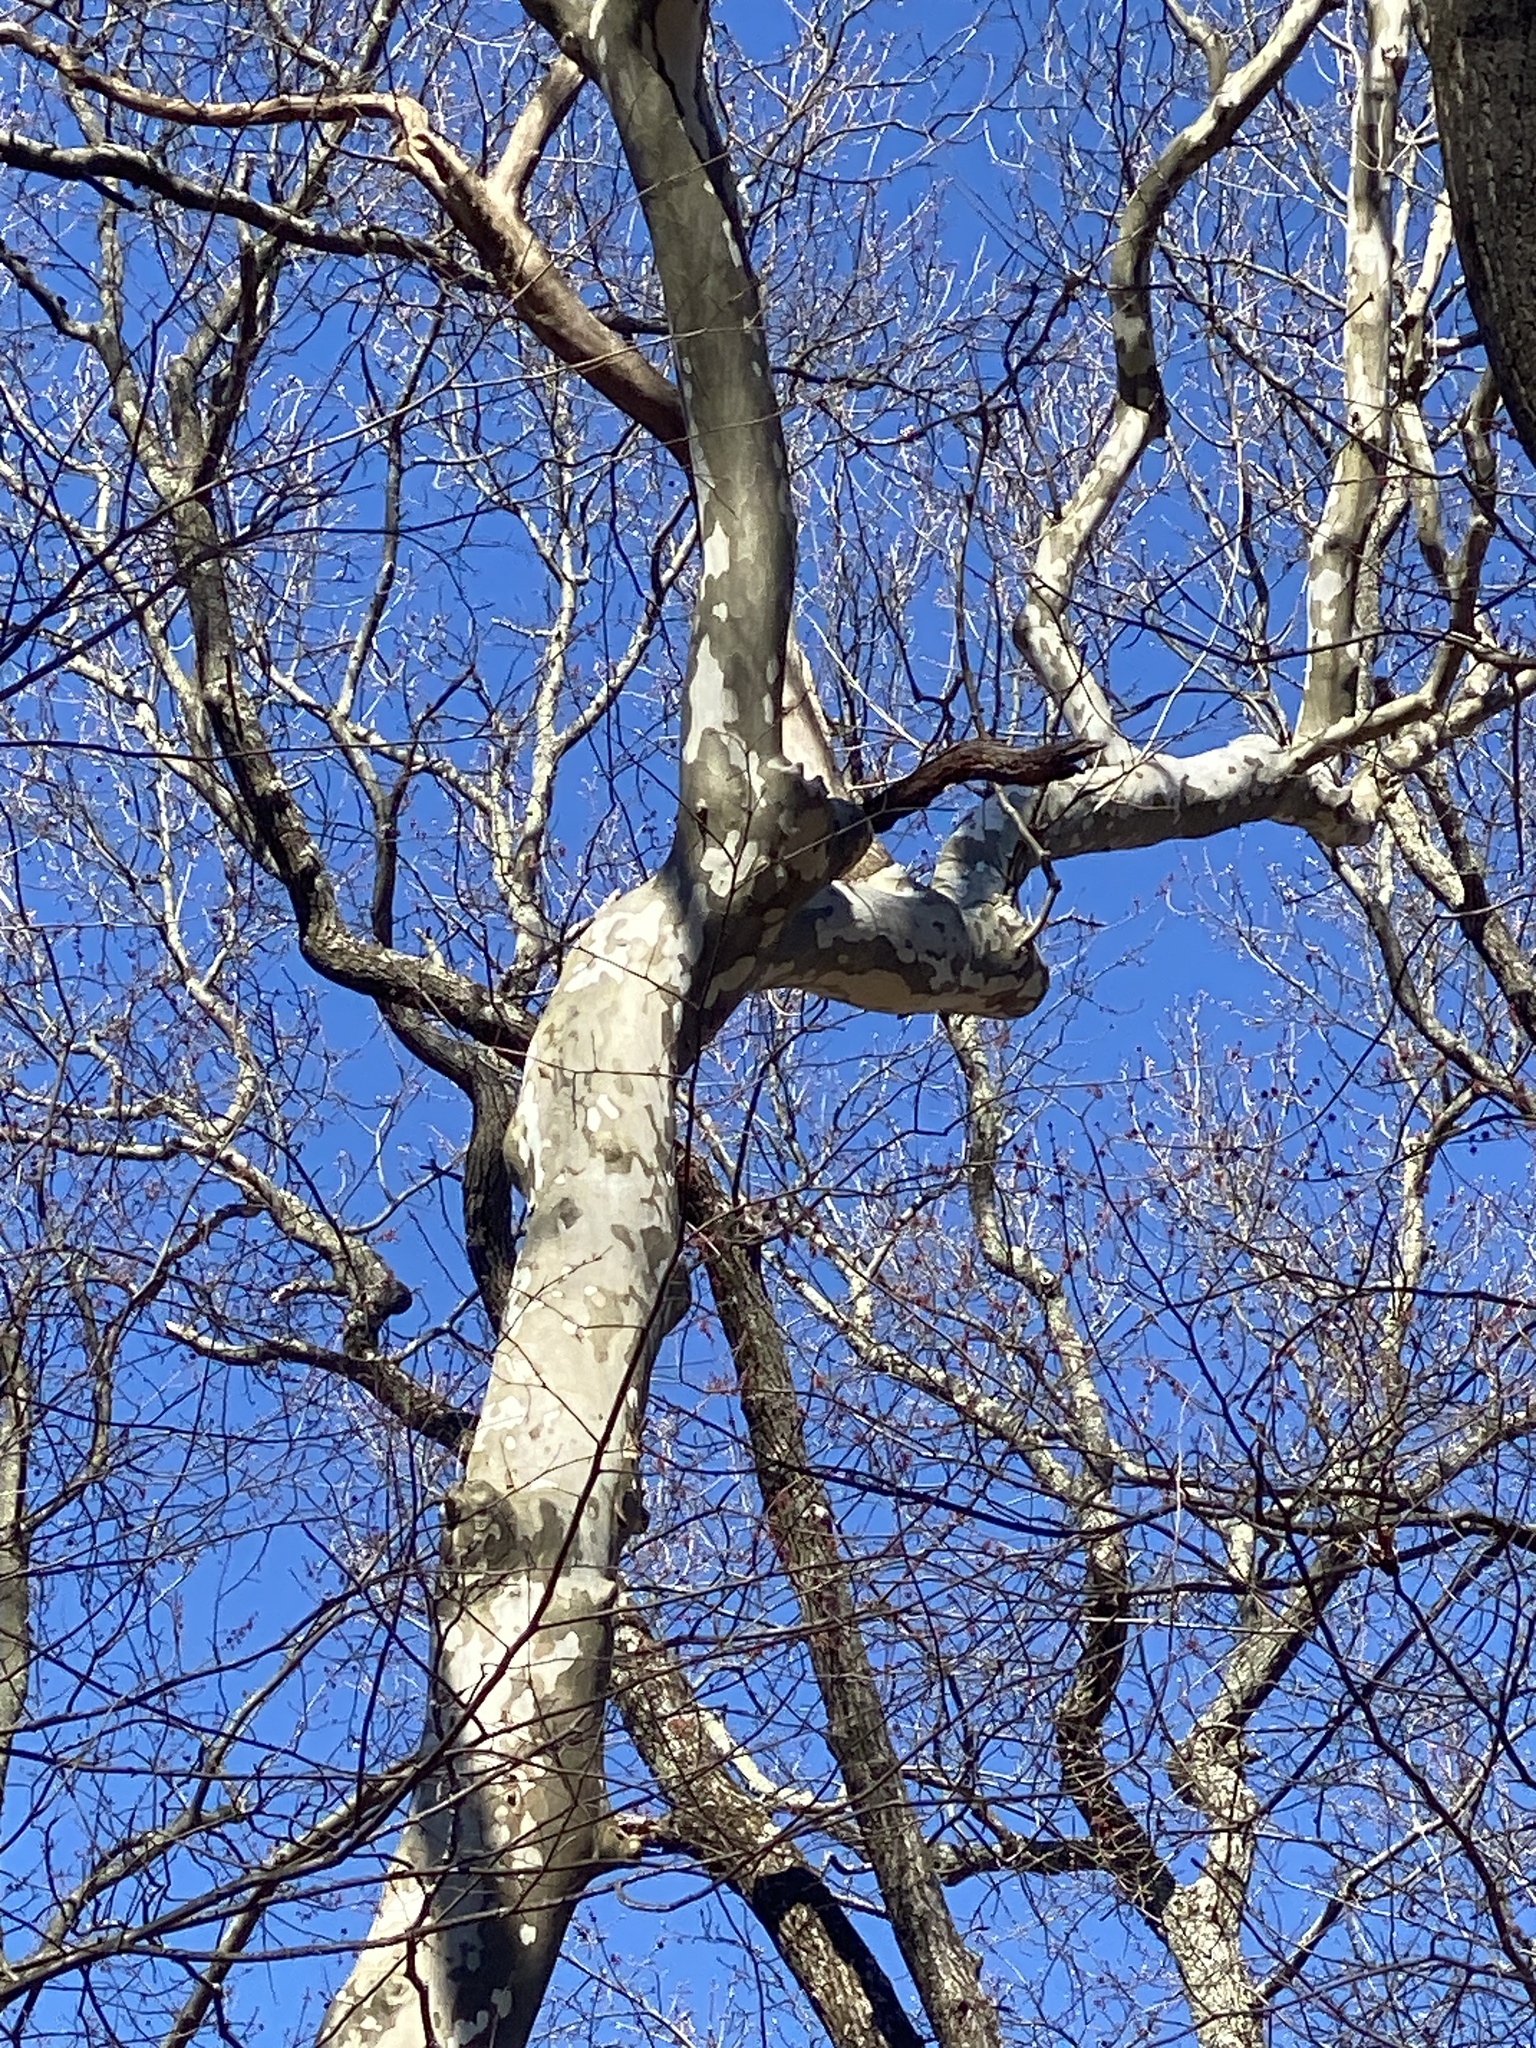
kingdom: Plantae
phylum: Tracheophyta
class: Magnoliopsida
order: Proteales
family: Platanaceae
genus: Platanus
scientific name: Platanus occidentalis
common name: American sycamore
